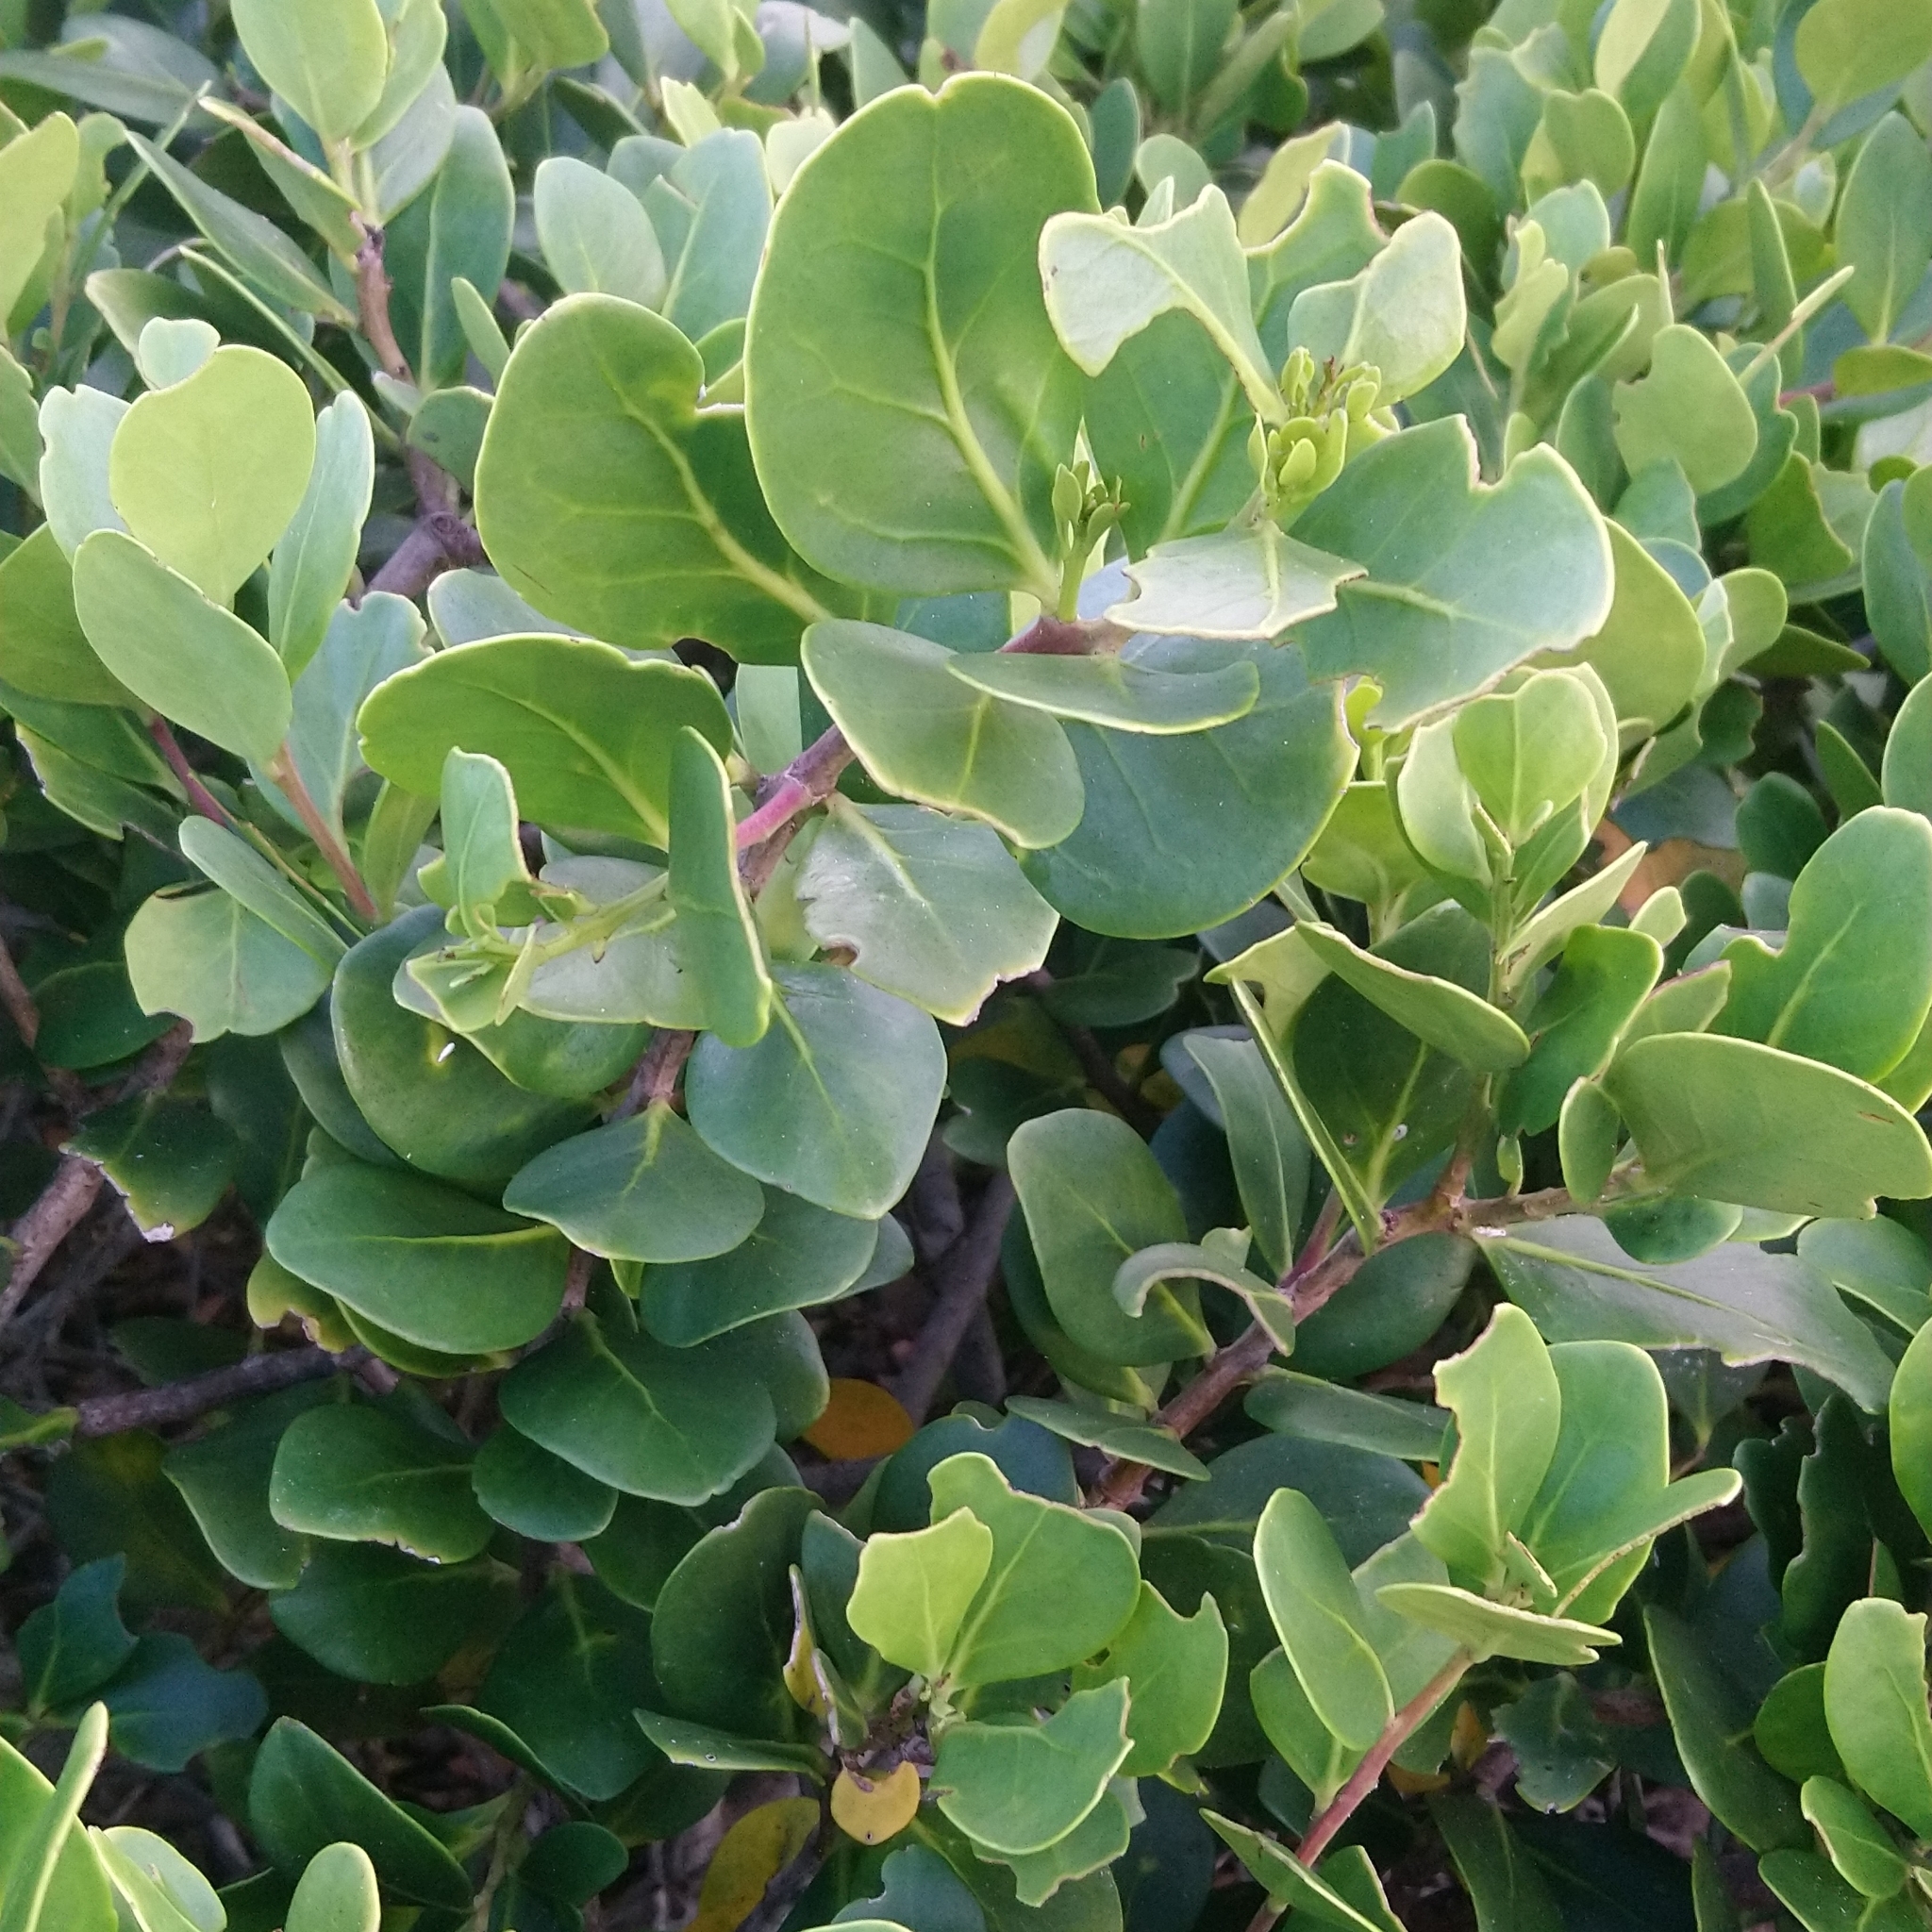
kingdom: Plantae
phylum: Tracheophyta
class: Magnoliopsida
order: Celastrales
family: Celastraceae
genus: Pterocelastrus
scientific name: Pterocelastrus tricuspidatus
